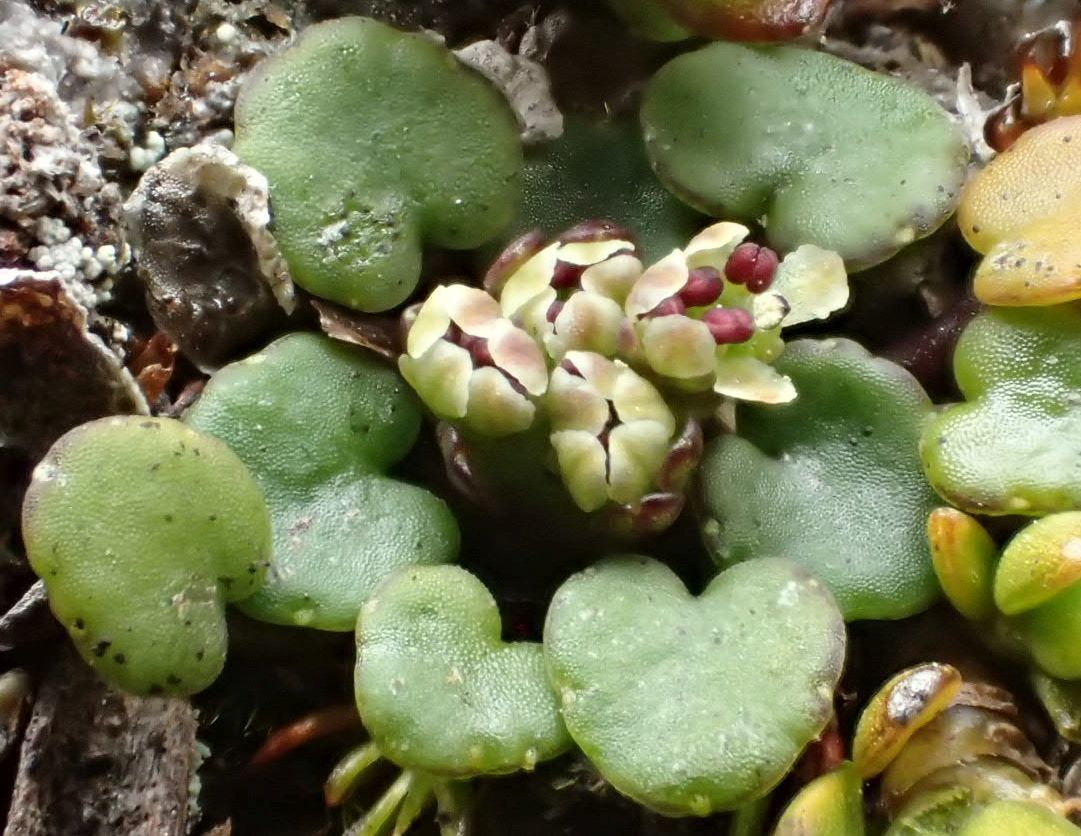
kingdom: Plantae
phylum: Tracheophyta
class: Magnoliopsida
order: Apiales
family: Apiaceae
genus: Azorella
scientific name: Azorella exigua
